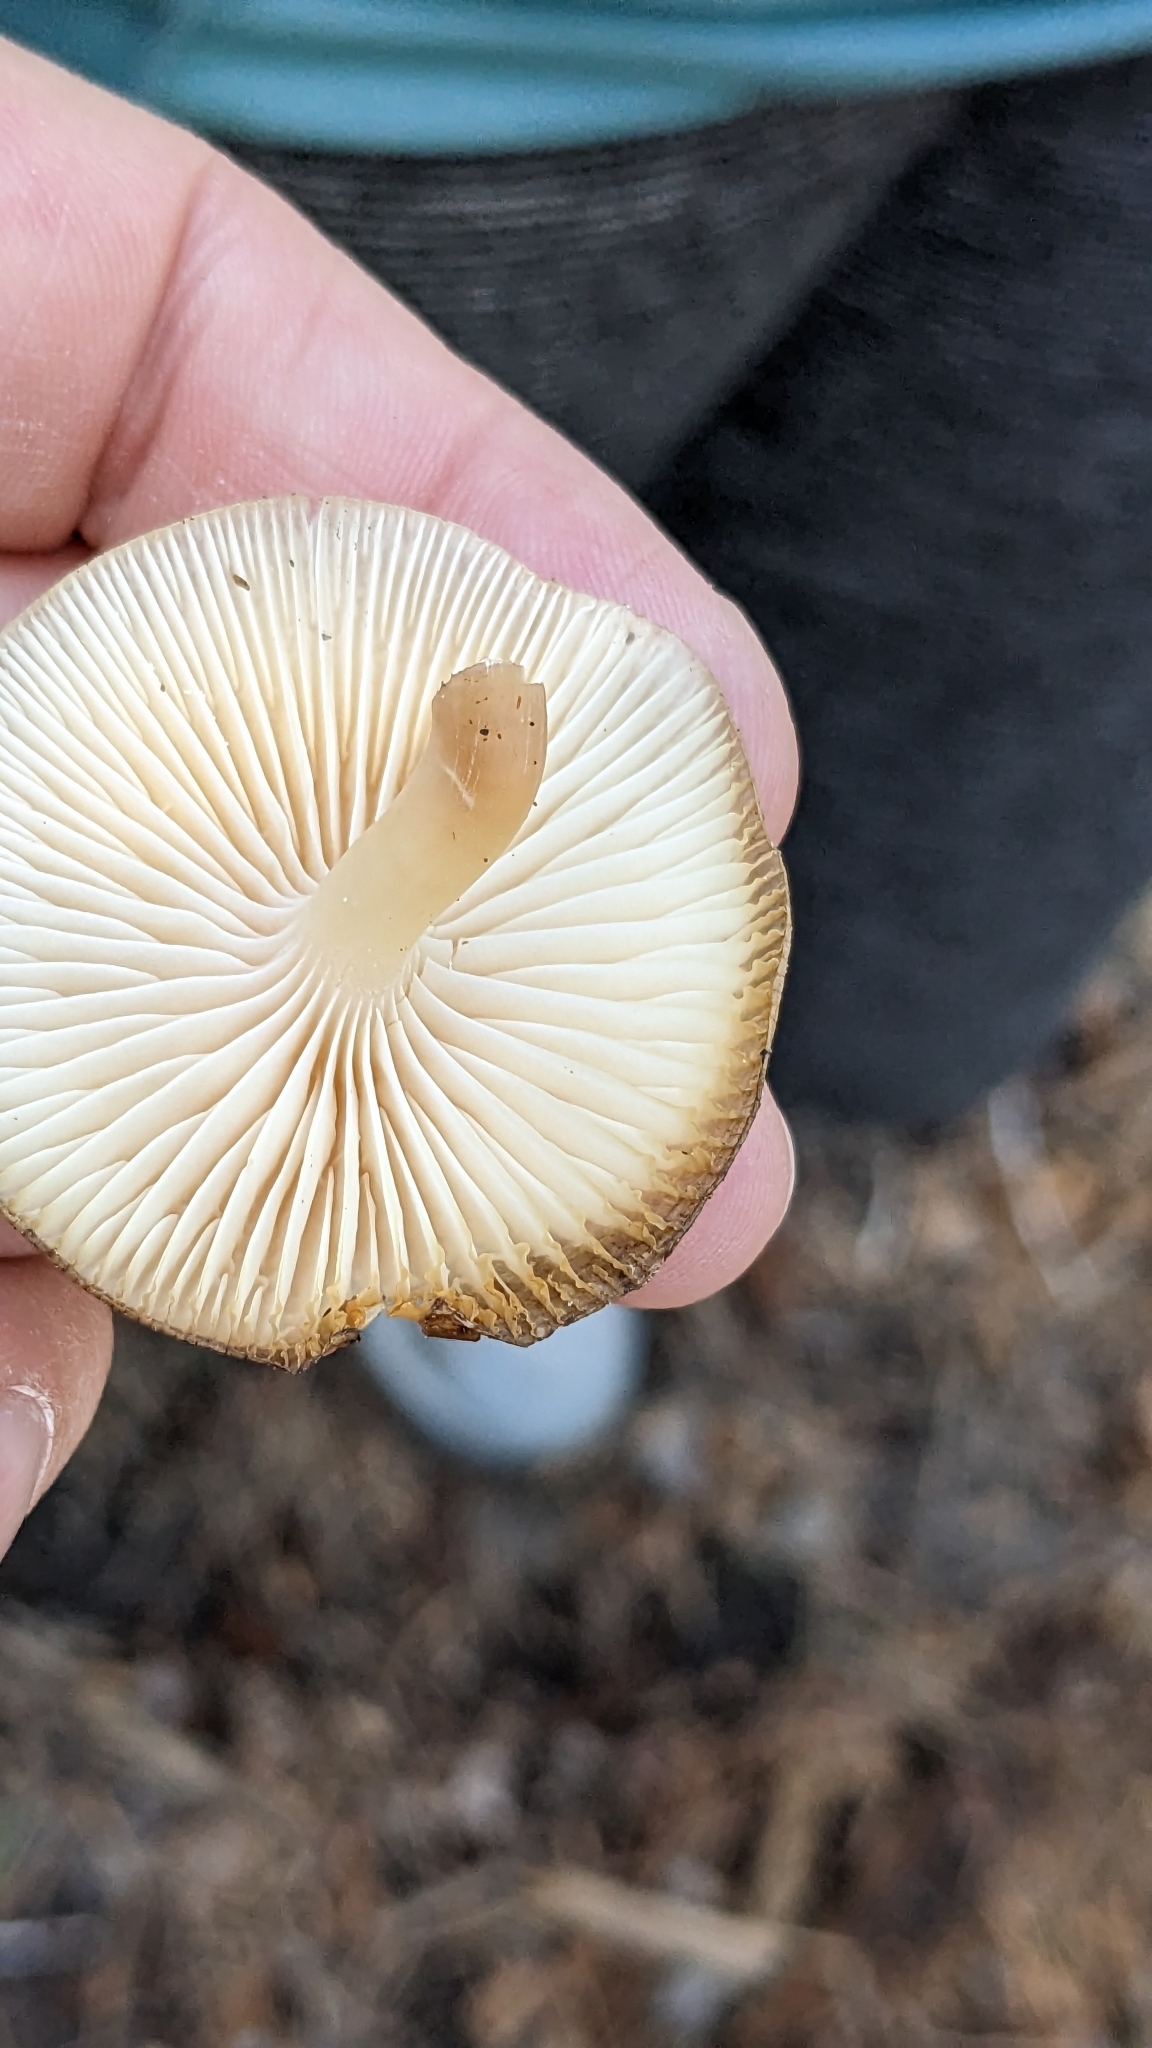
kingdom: Fungi
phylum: Basidiomycota
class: Agaricomycetes
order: Agaricales
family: Mycenaceae
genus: Mycena
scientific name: Mycena overholtsii
